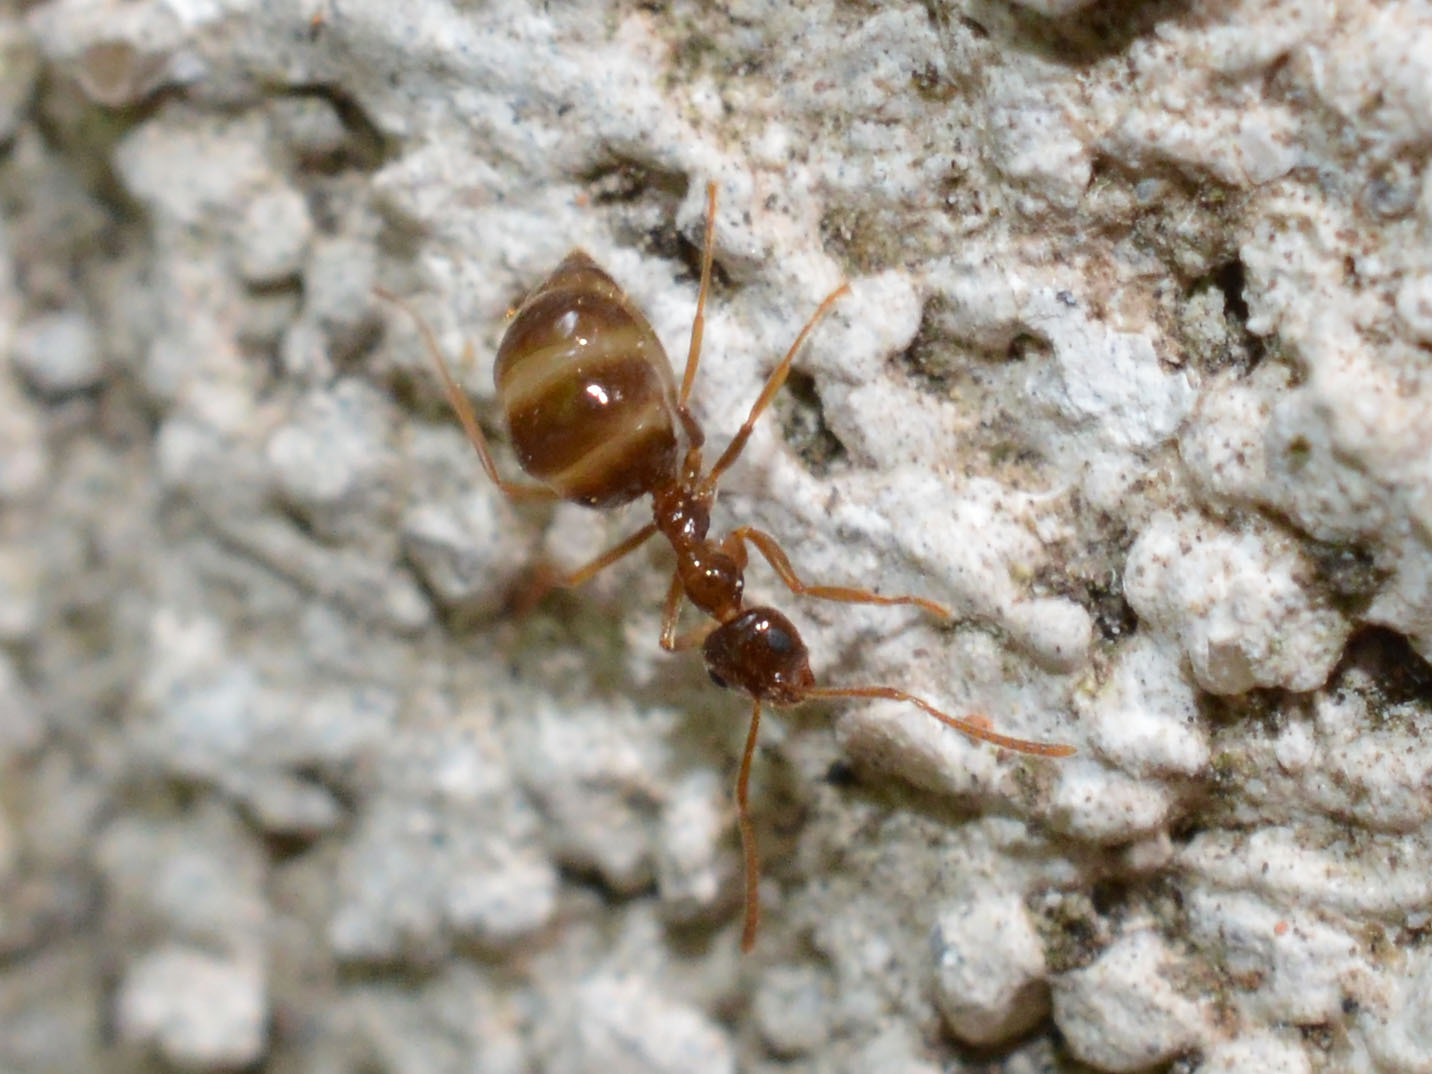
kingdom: Animalia
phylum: Arthropoda
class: Insecta
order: Hymenoptera
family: Formicidae
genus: Prenolepis
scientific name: Prenolepis nitens
